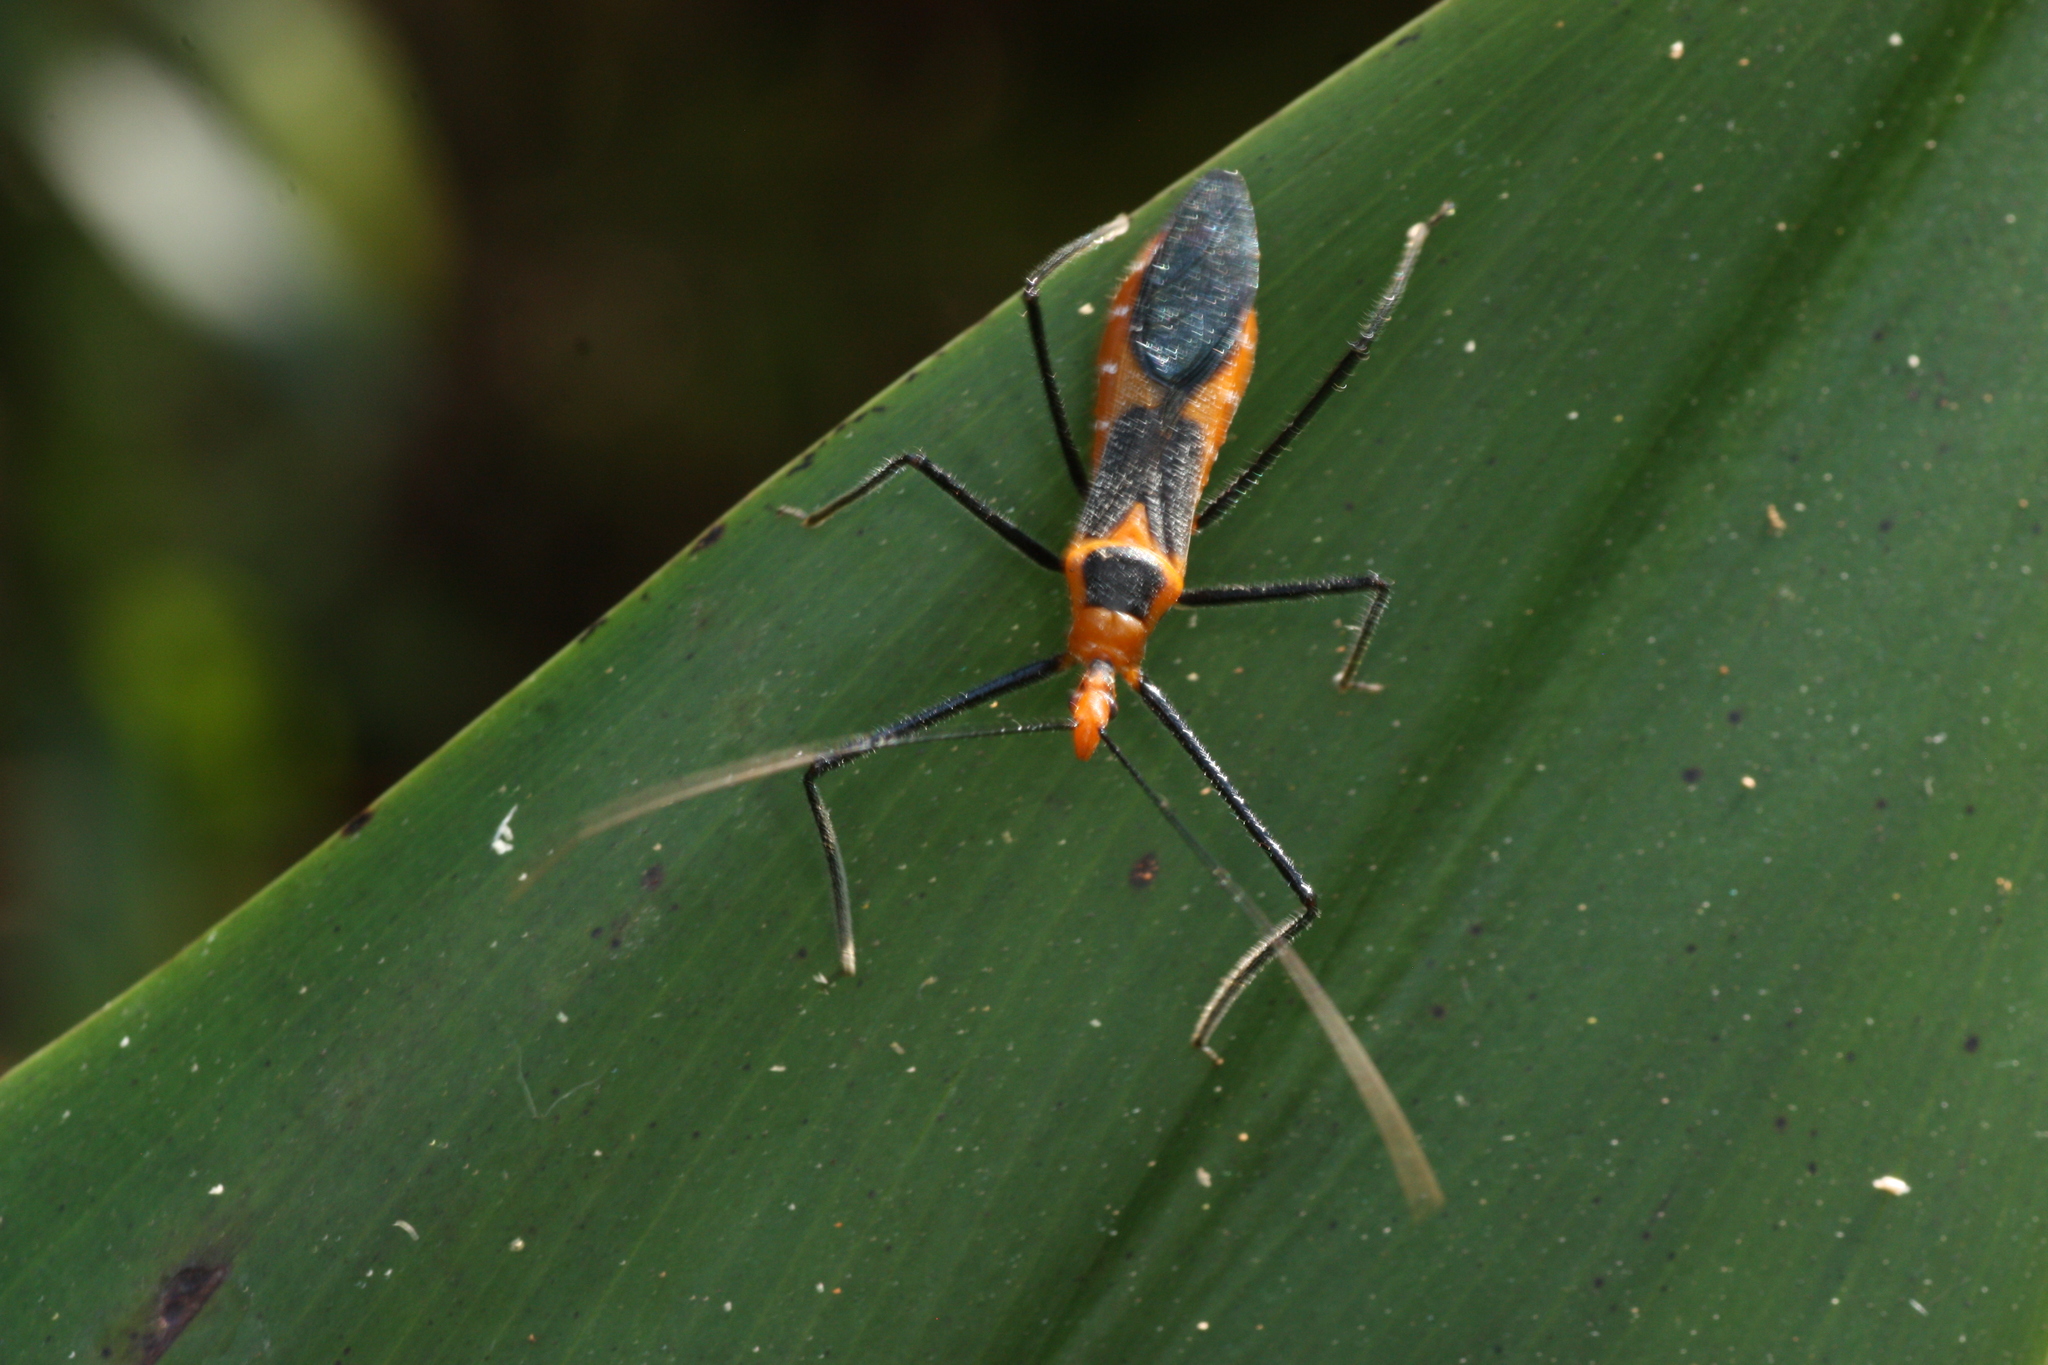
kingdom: Animalia
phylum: Arthropoda
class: Insecta
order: Hemiptera
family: Reduviidae
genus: Zelus
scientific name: Zelus longipes
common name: Milkweed assassin bug
